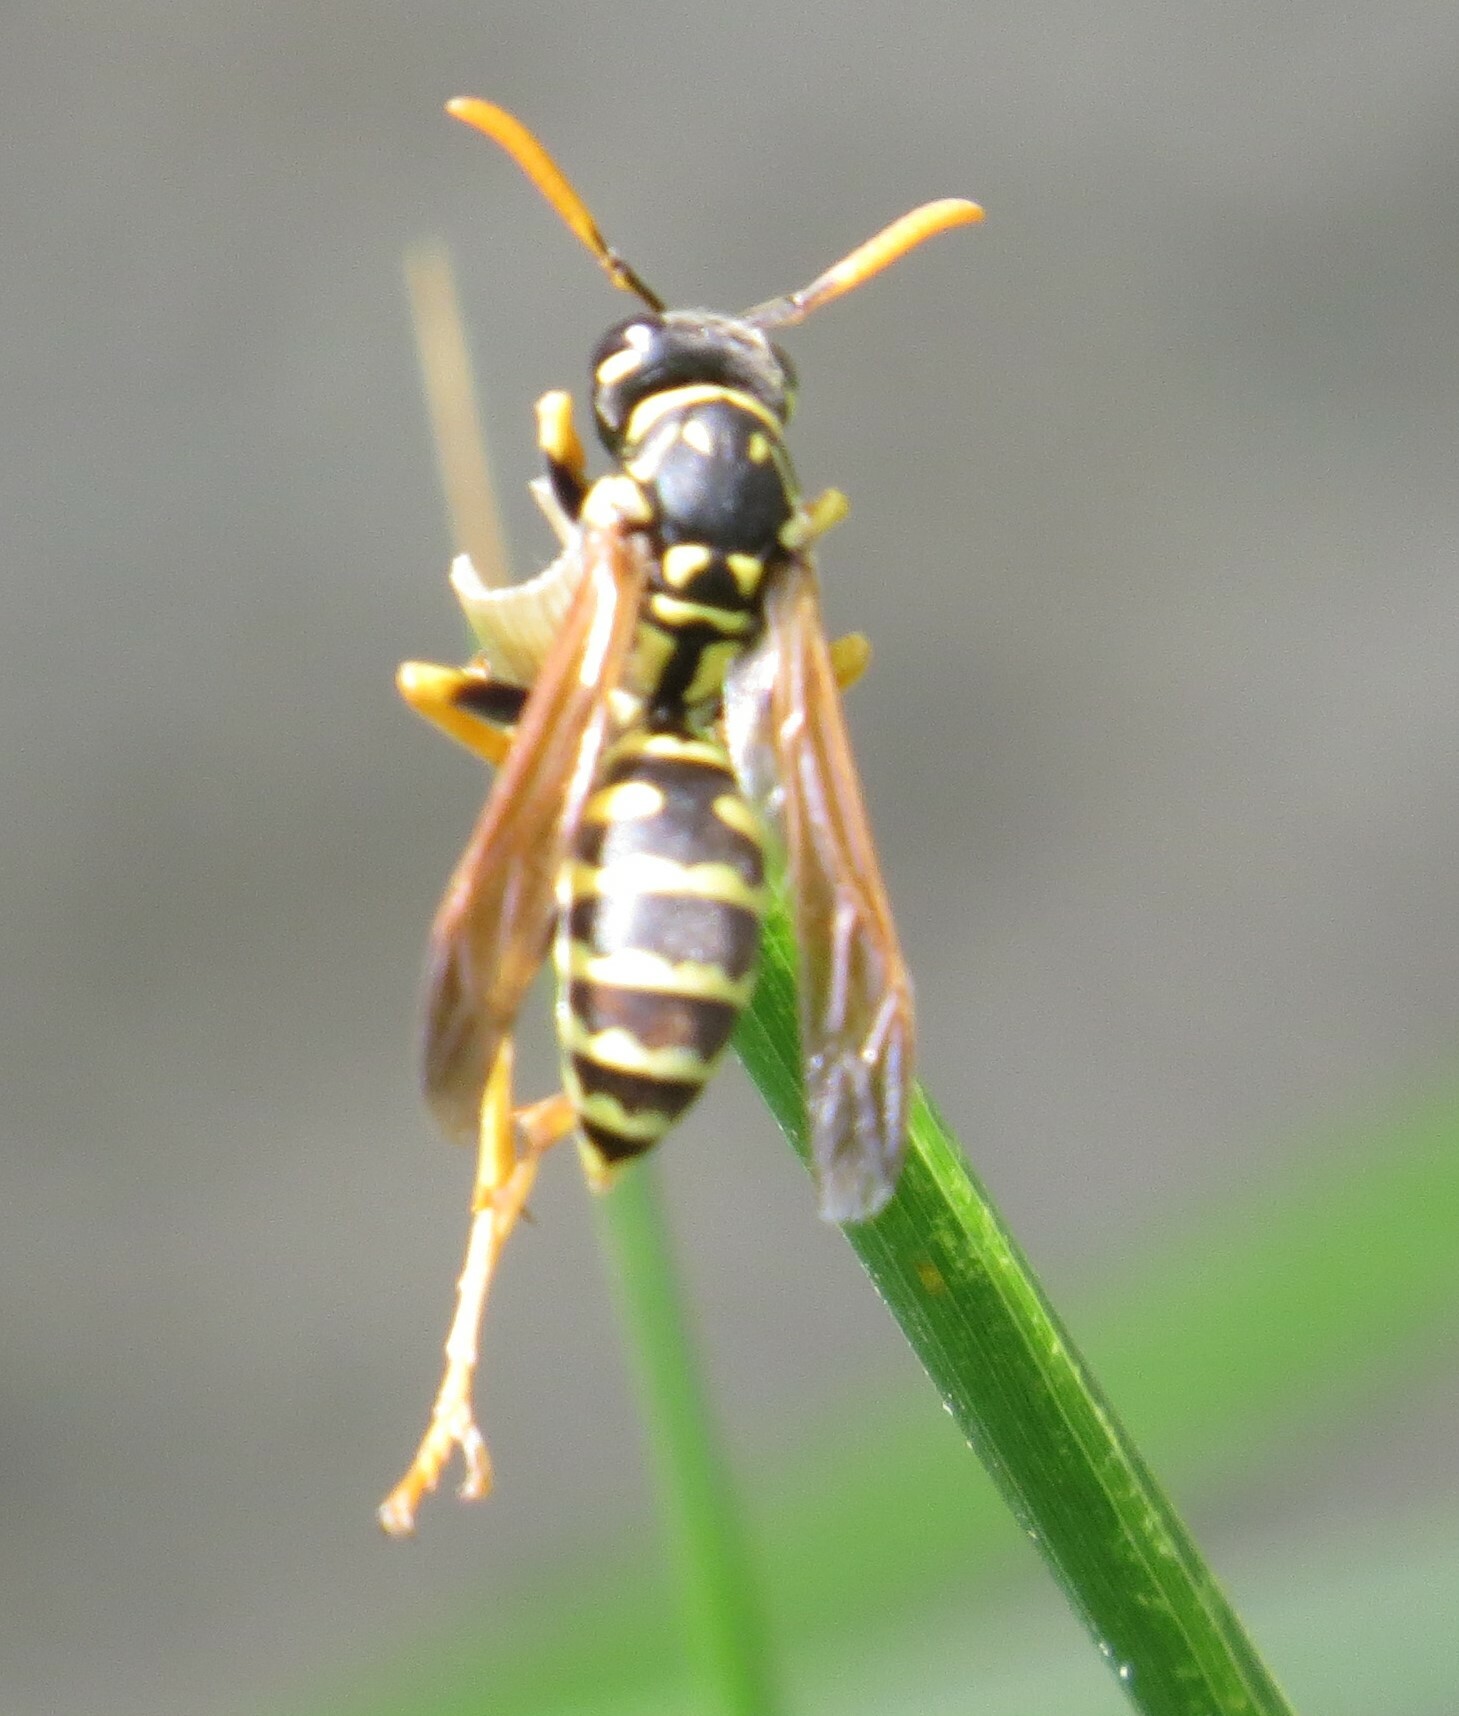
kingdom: Animalia
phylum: Arthropoda
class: Insecta
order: Hymenoptera
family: Eumenidae
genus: Polistes
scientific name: Polistes dominula
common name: Paper wasp
